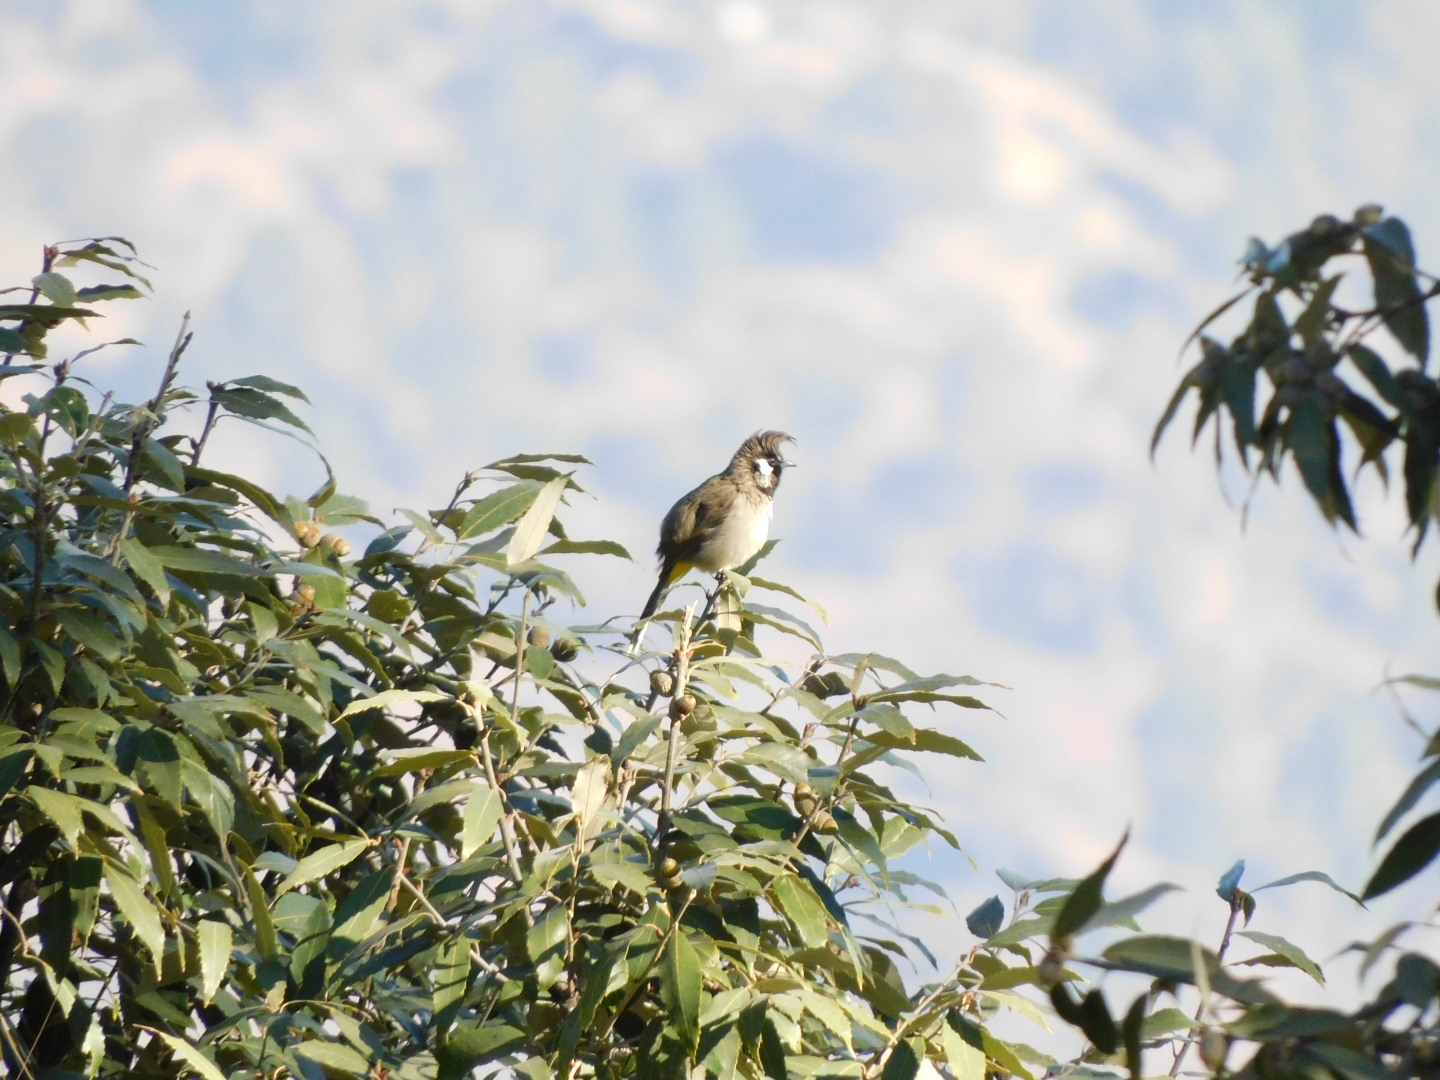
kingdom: Animalia
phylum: Chordata
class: Aves
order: Passeriformes
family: Pycnonotidae
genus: Pycnonotus
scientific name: Pycnonotus leucogenys
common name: Himalayan bulbul
